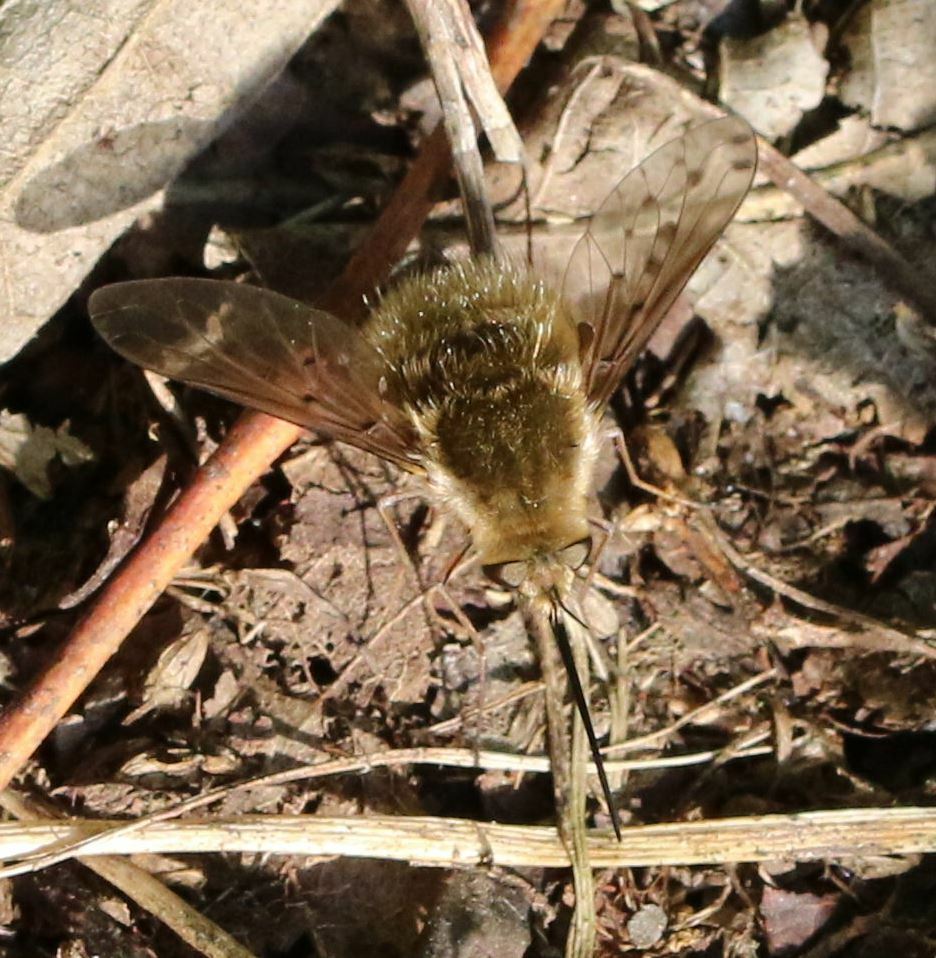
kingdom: Animalia
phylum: Arthropoda
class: Insecta
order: Diptera
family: Bombyliidae
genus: Bombylius
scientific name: Bombylius medius
